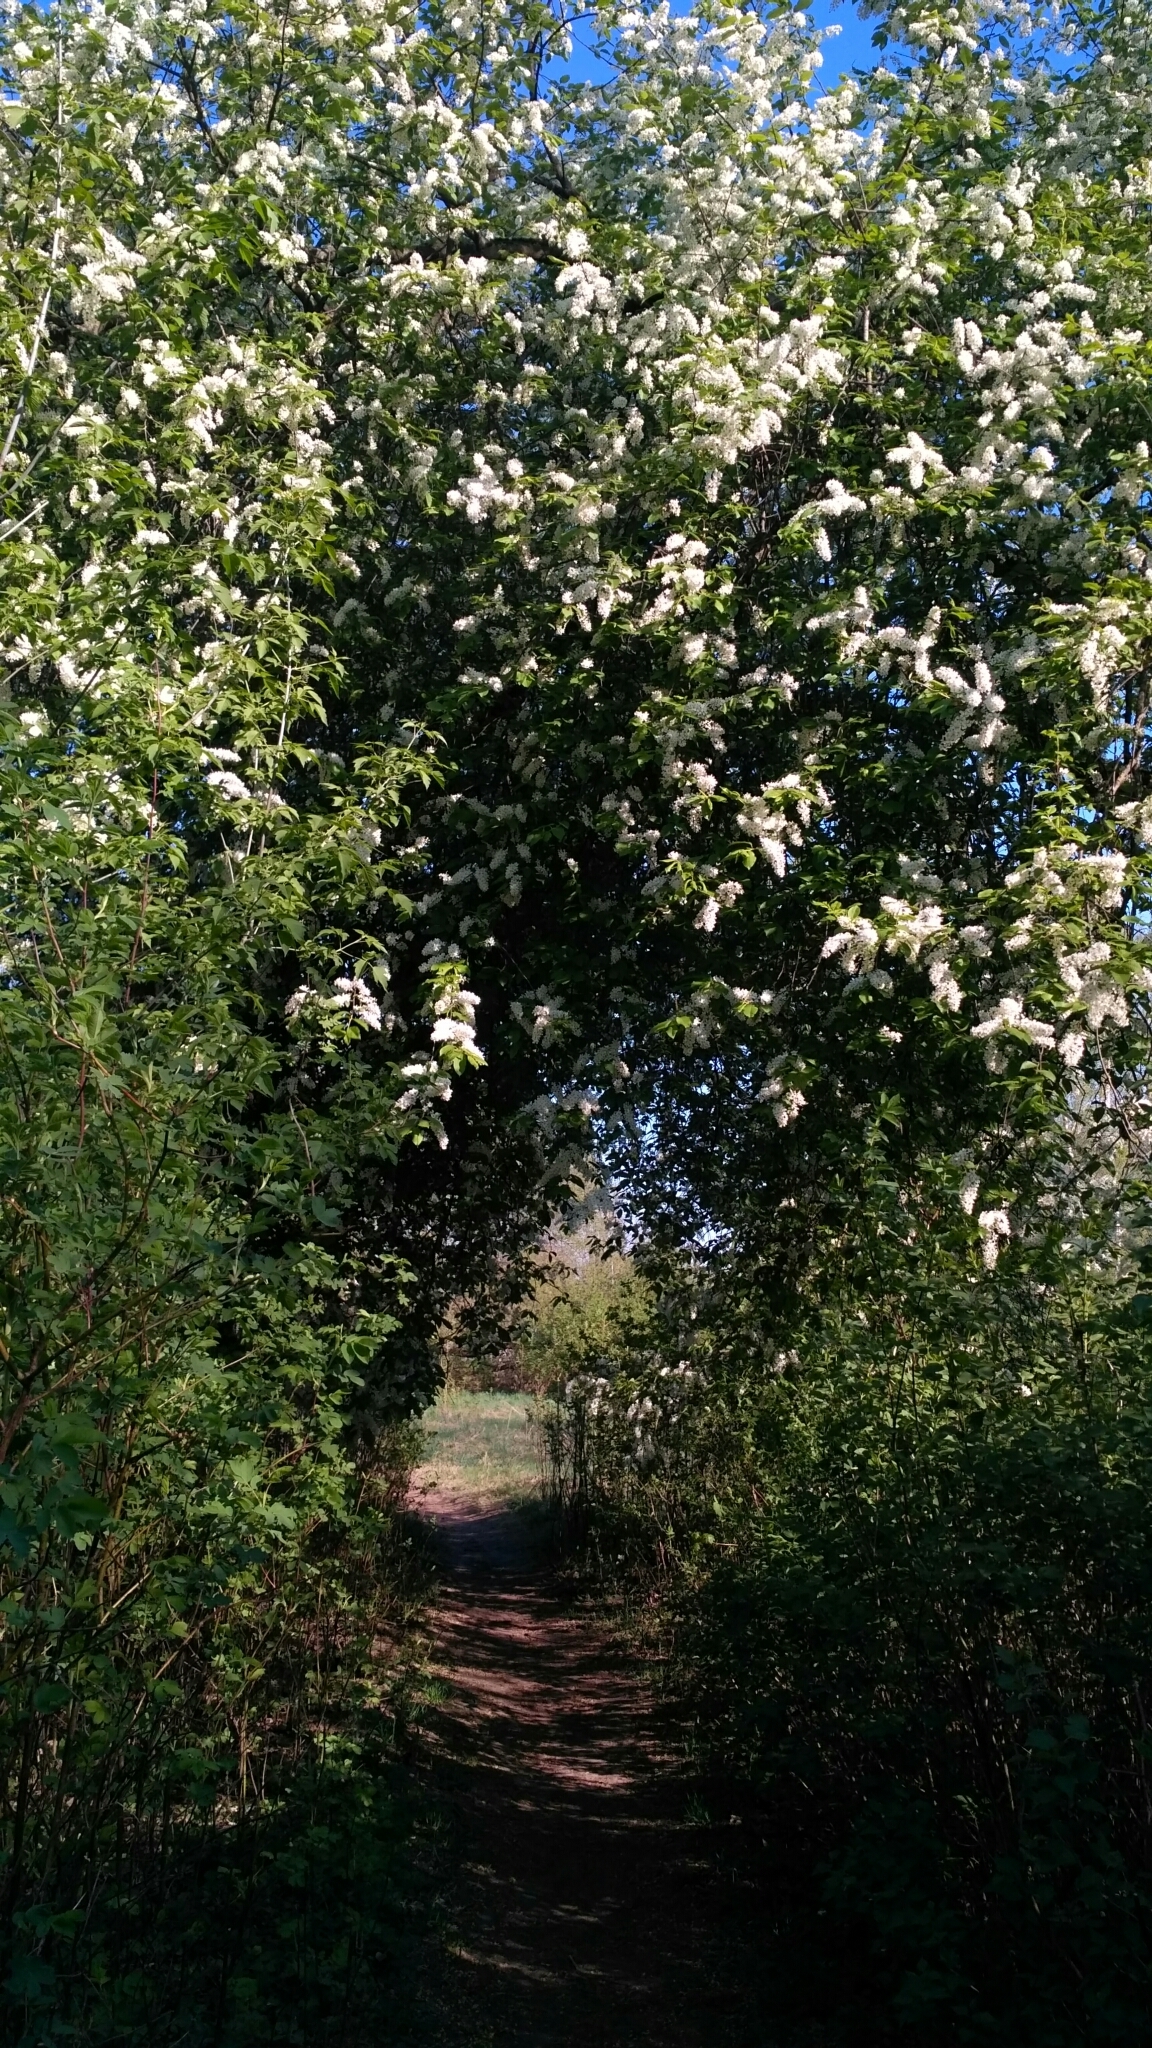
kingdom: Plantae
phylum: Tracheophyta
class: Magnoliopsida
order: Rosales
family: Rosaceae
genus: Prunus
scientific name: Prunus padus
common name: Bird cherry
